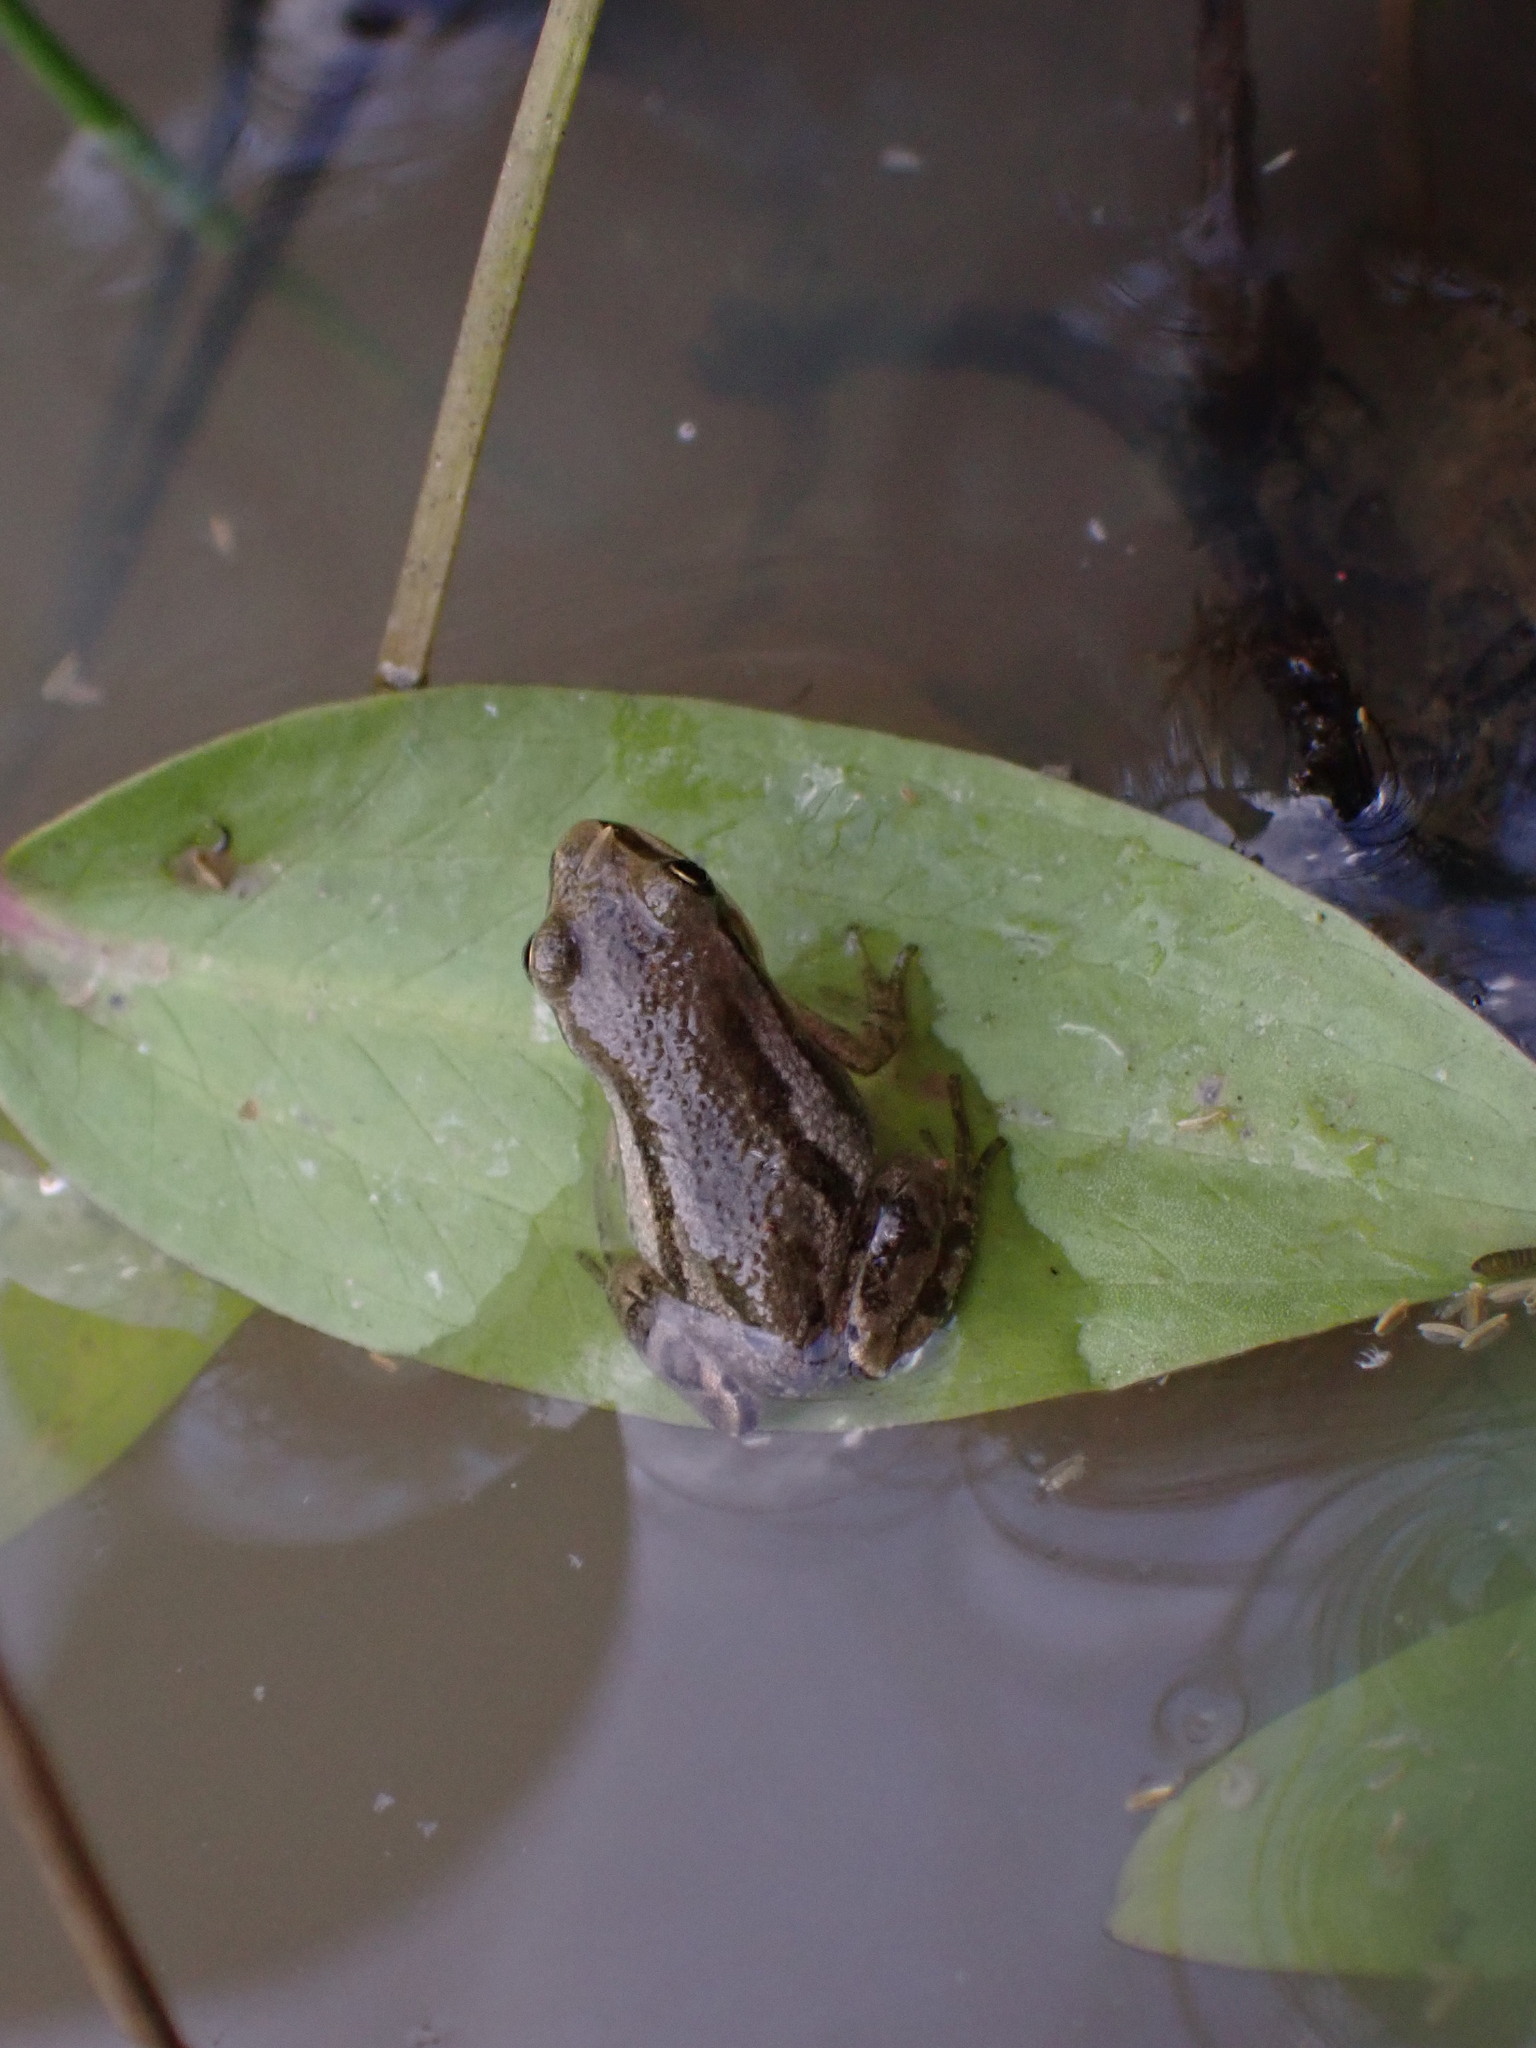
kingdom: Animalia
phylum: Chordata
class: Amphibia
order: Anura
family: Hylidae
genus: Pseudacris
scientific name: Pseudacris maculata
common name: Boreal chorus frog
